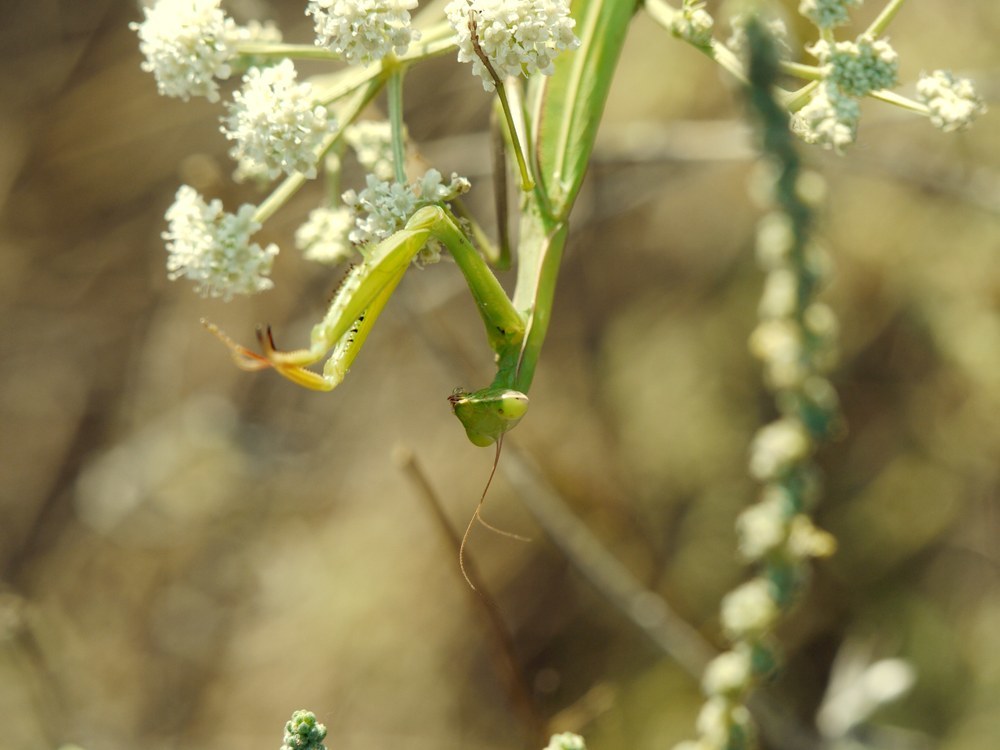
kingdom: Animalia
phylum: Arthropoda
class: Insecta
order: Mantodea
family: Mantidae
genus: Mantis
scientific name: Mantis religiosa
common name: Praying mantis
